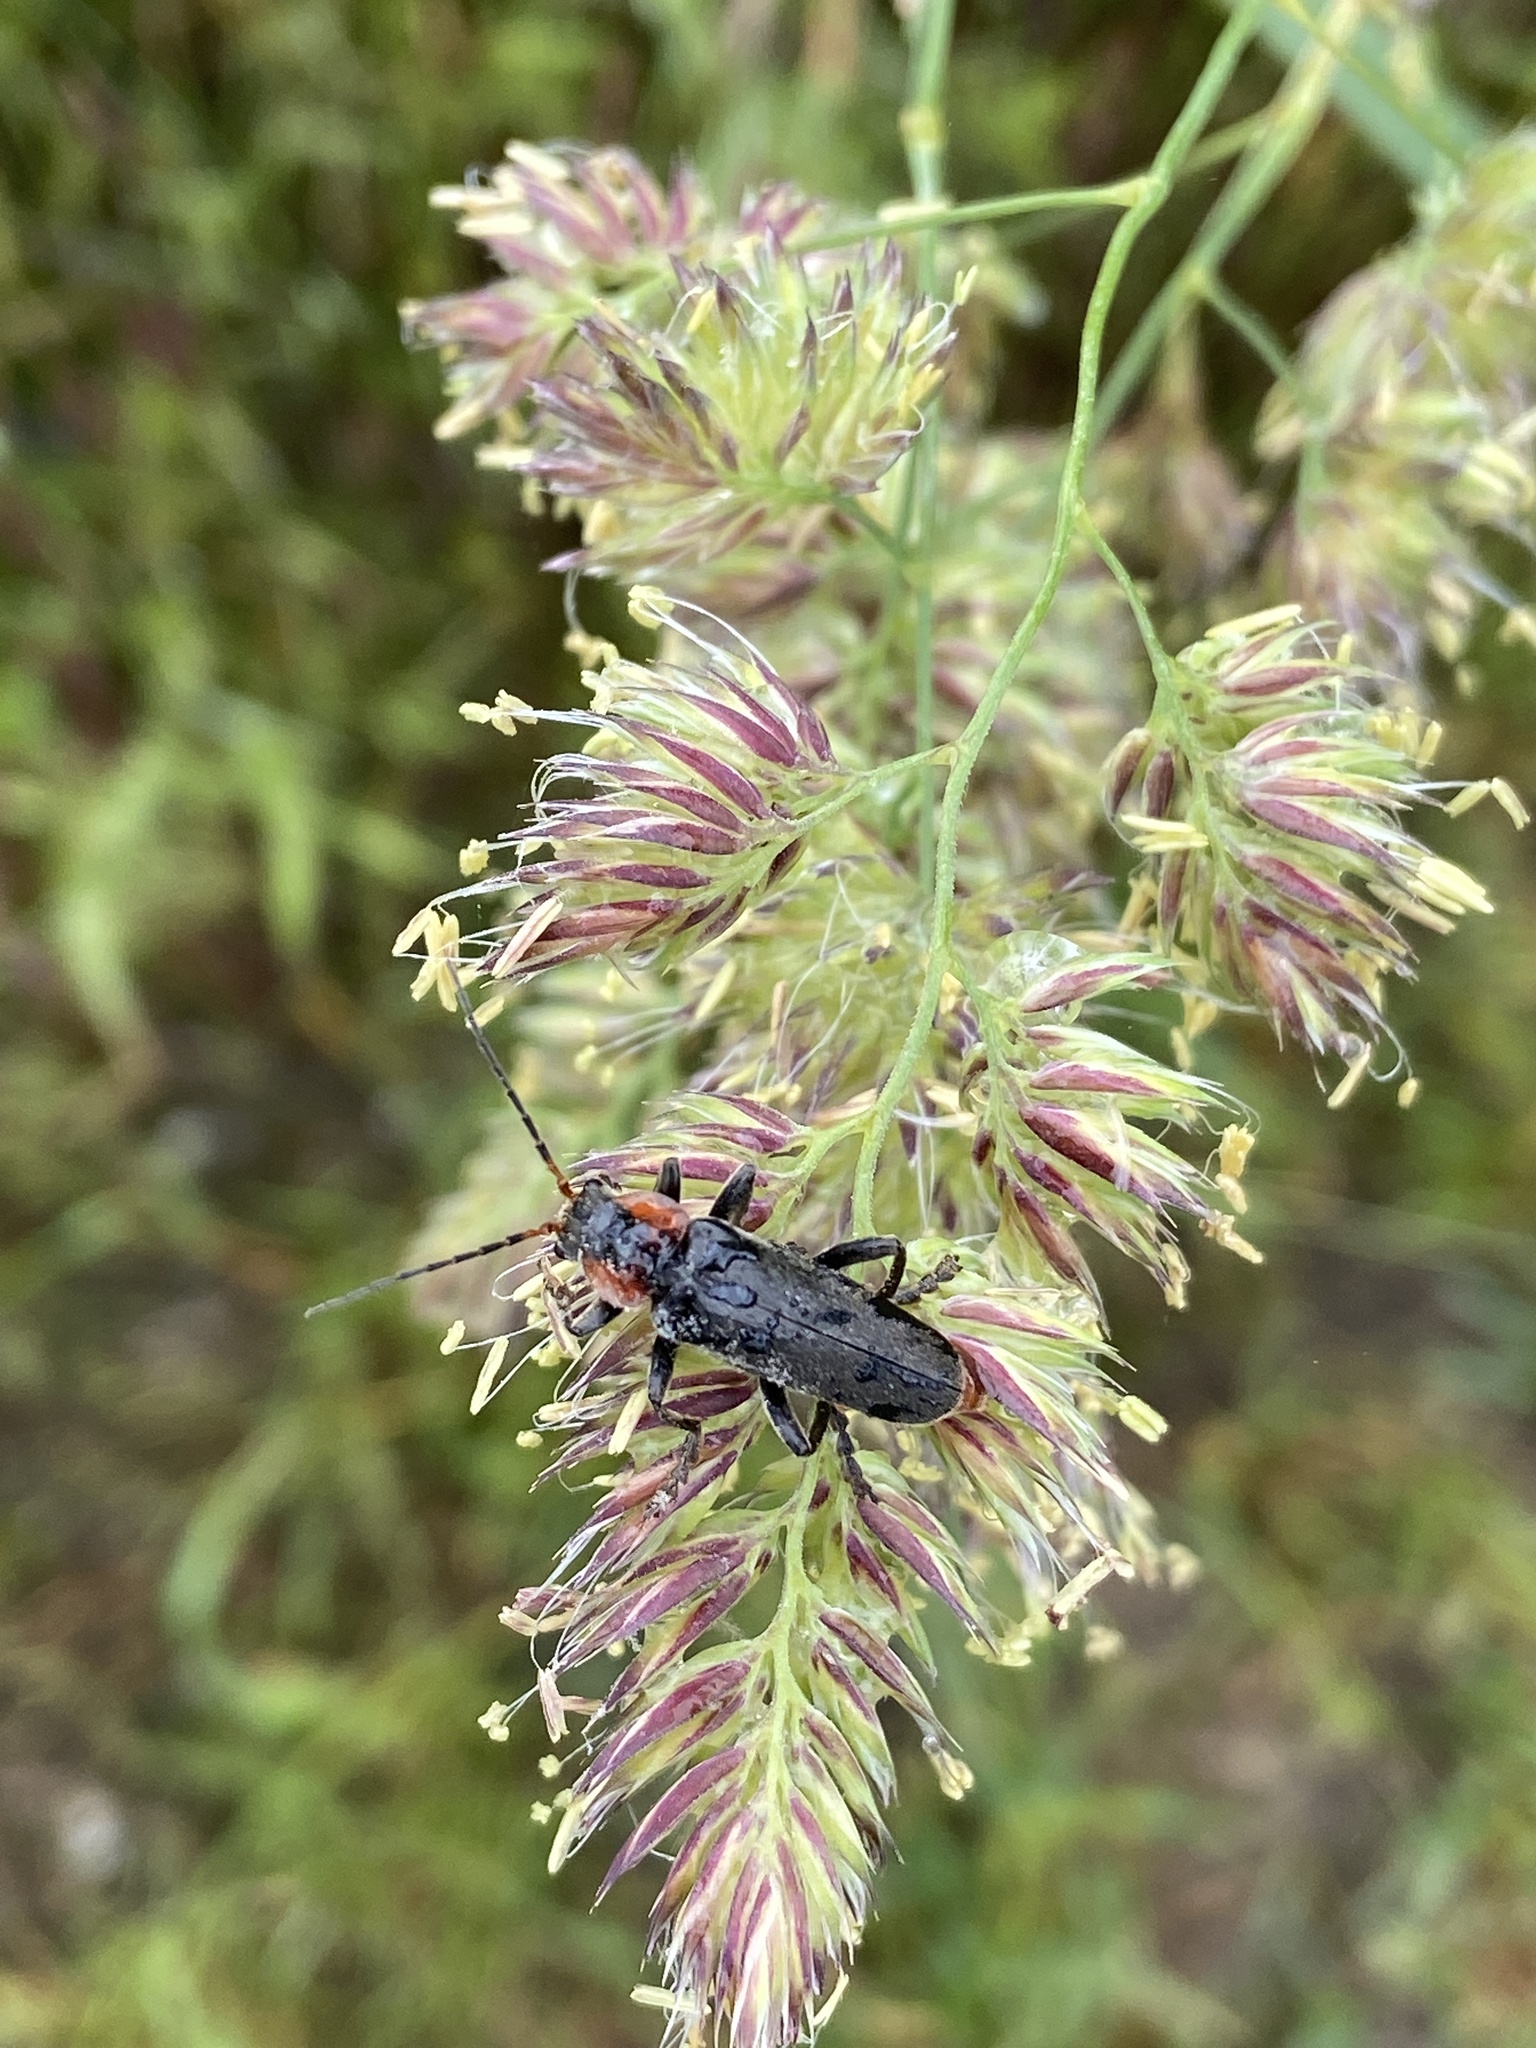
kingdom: Animalia
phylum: Arthropoda
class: Insecta
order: Coleoptera
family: Cantharidae
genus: Cantharis
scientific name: Cantharis fusca
